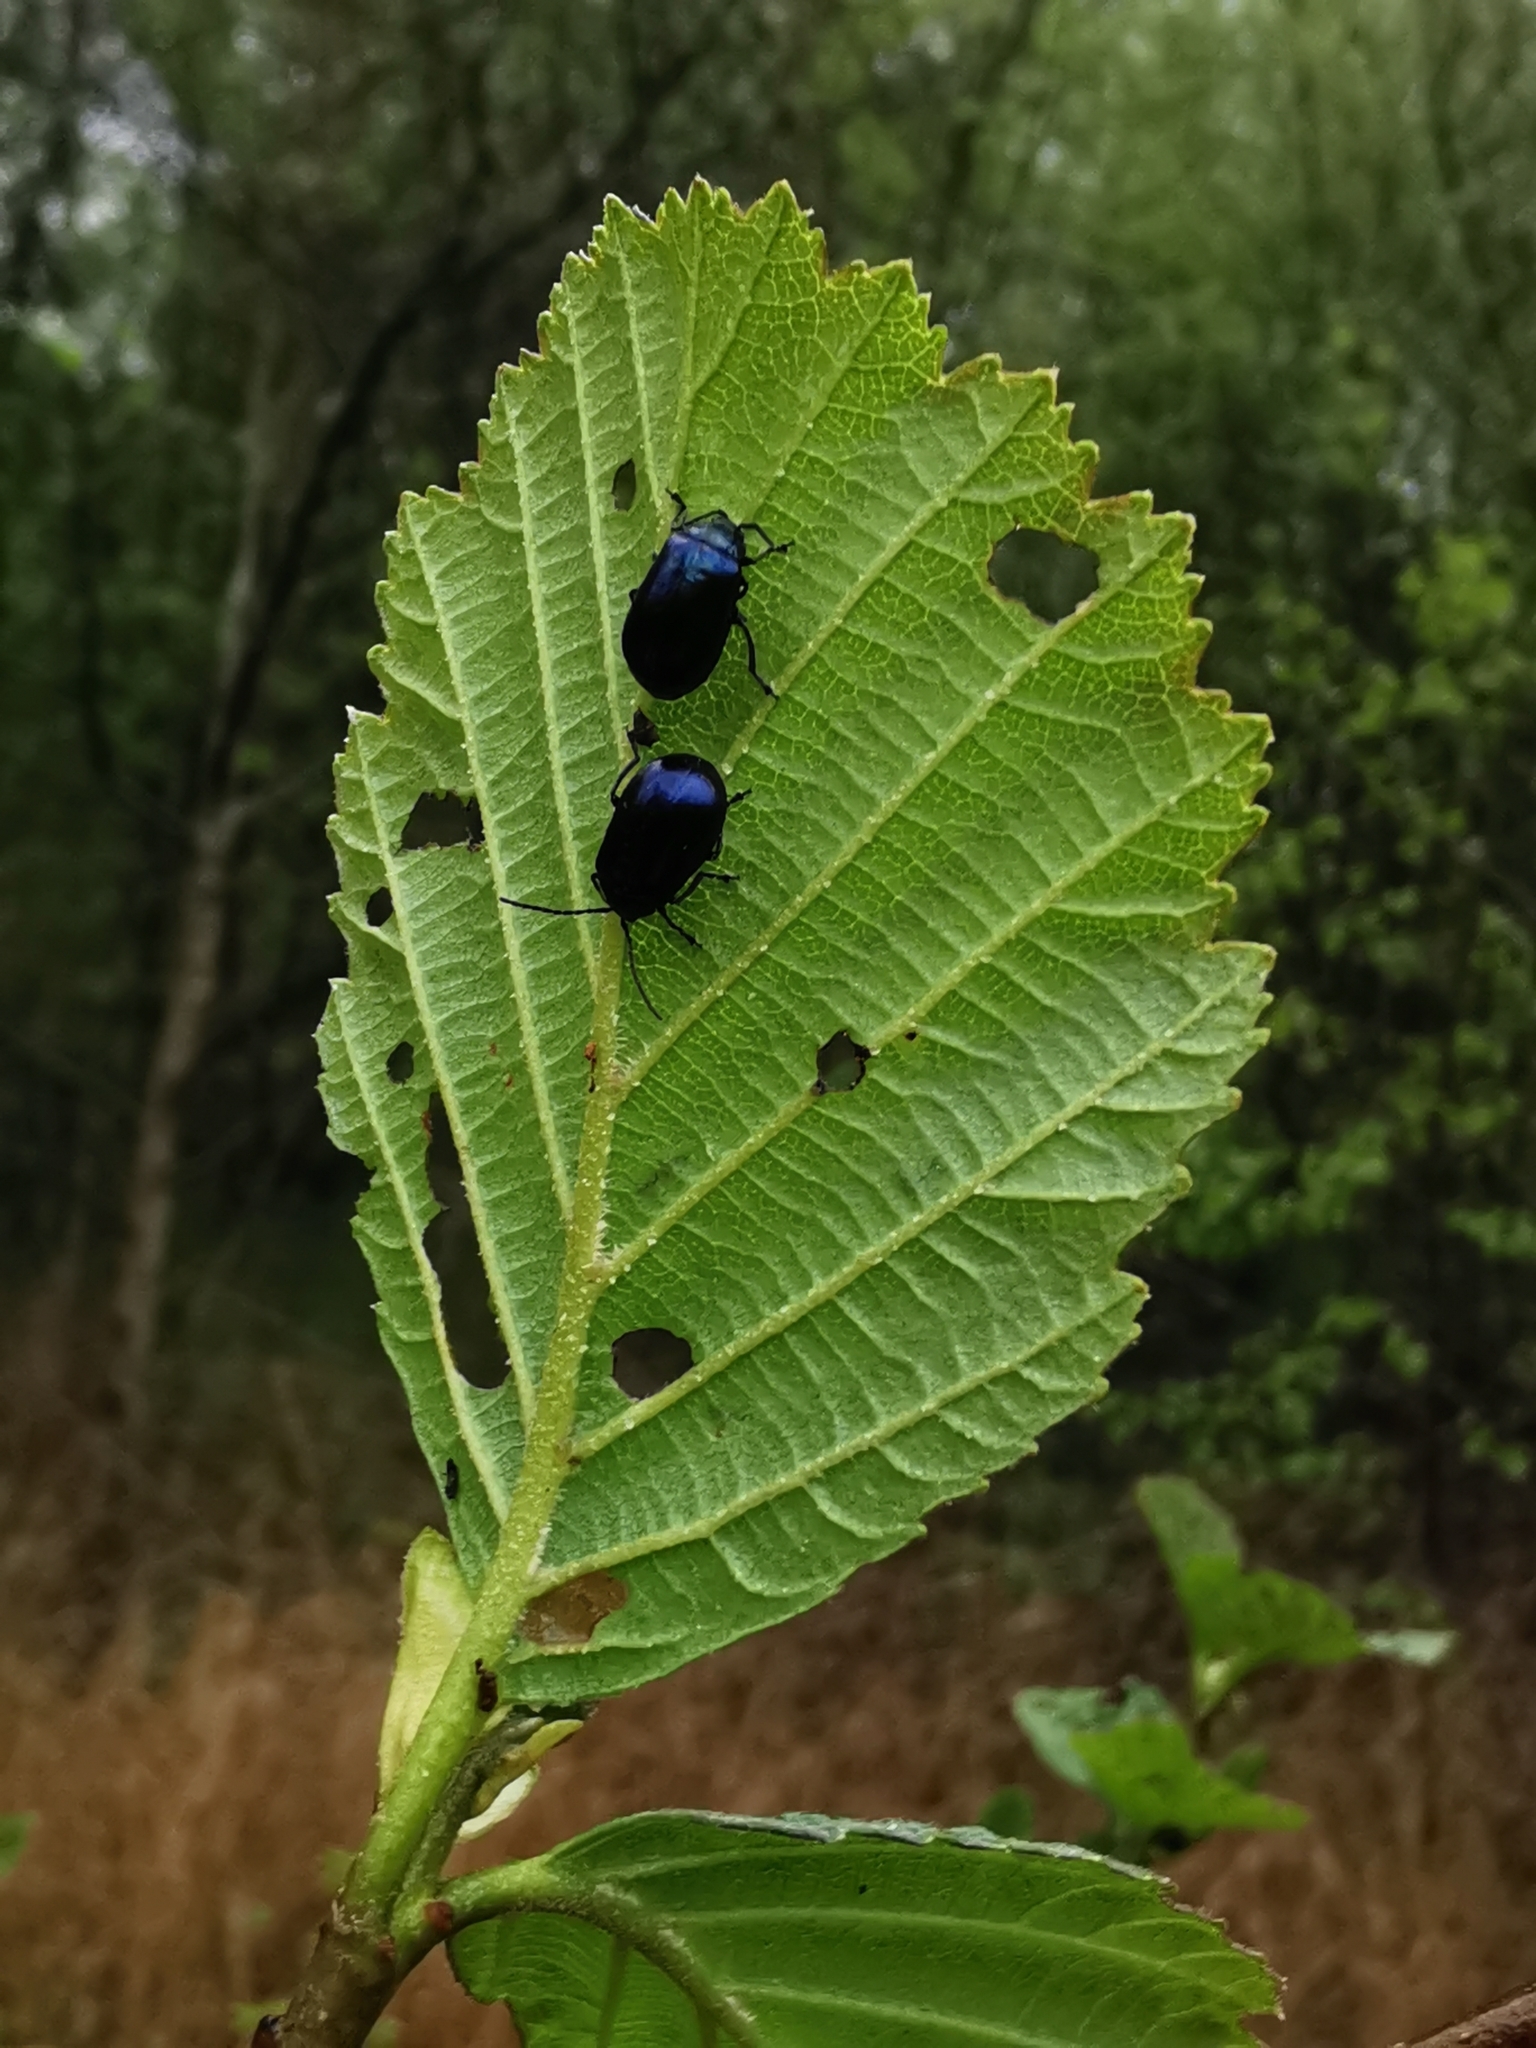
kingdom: Animalia
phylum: Arthropoda
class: Insecta
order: Coleoptera
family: Chrysomelidae
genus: Agelastica
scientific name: Agelastica alni
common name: Alder leaf beetle
